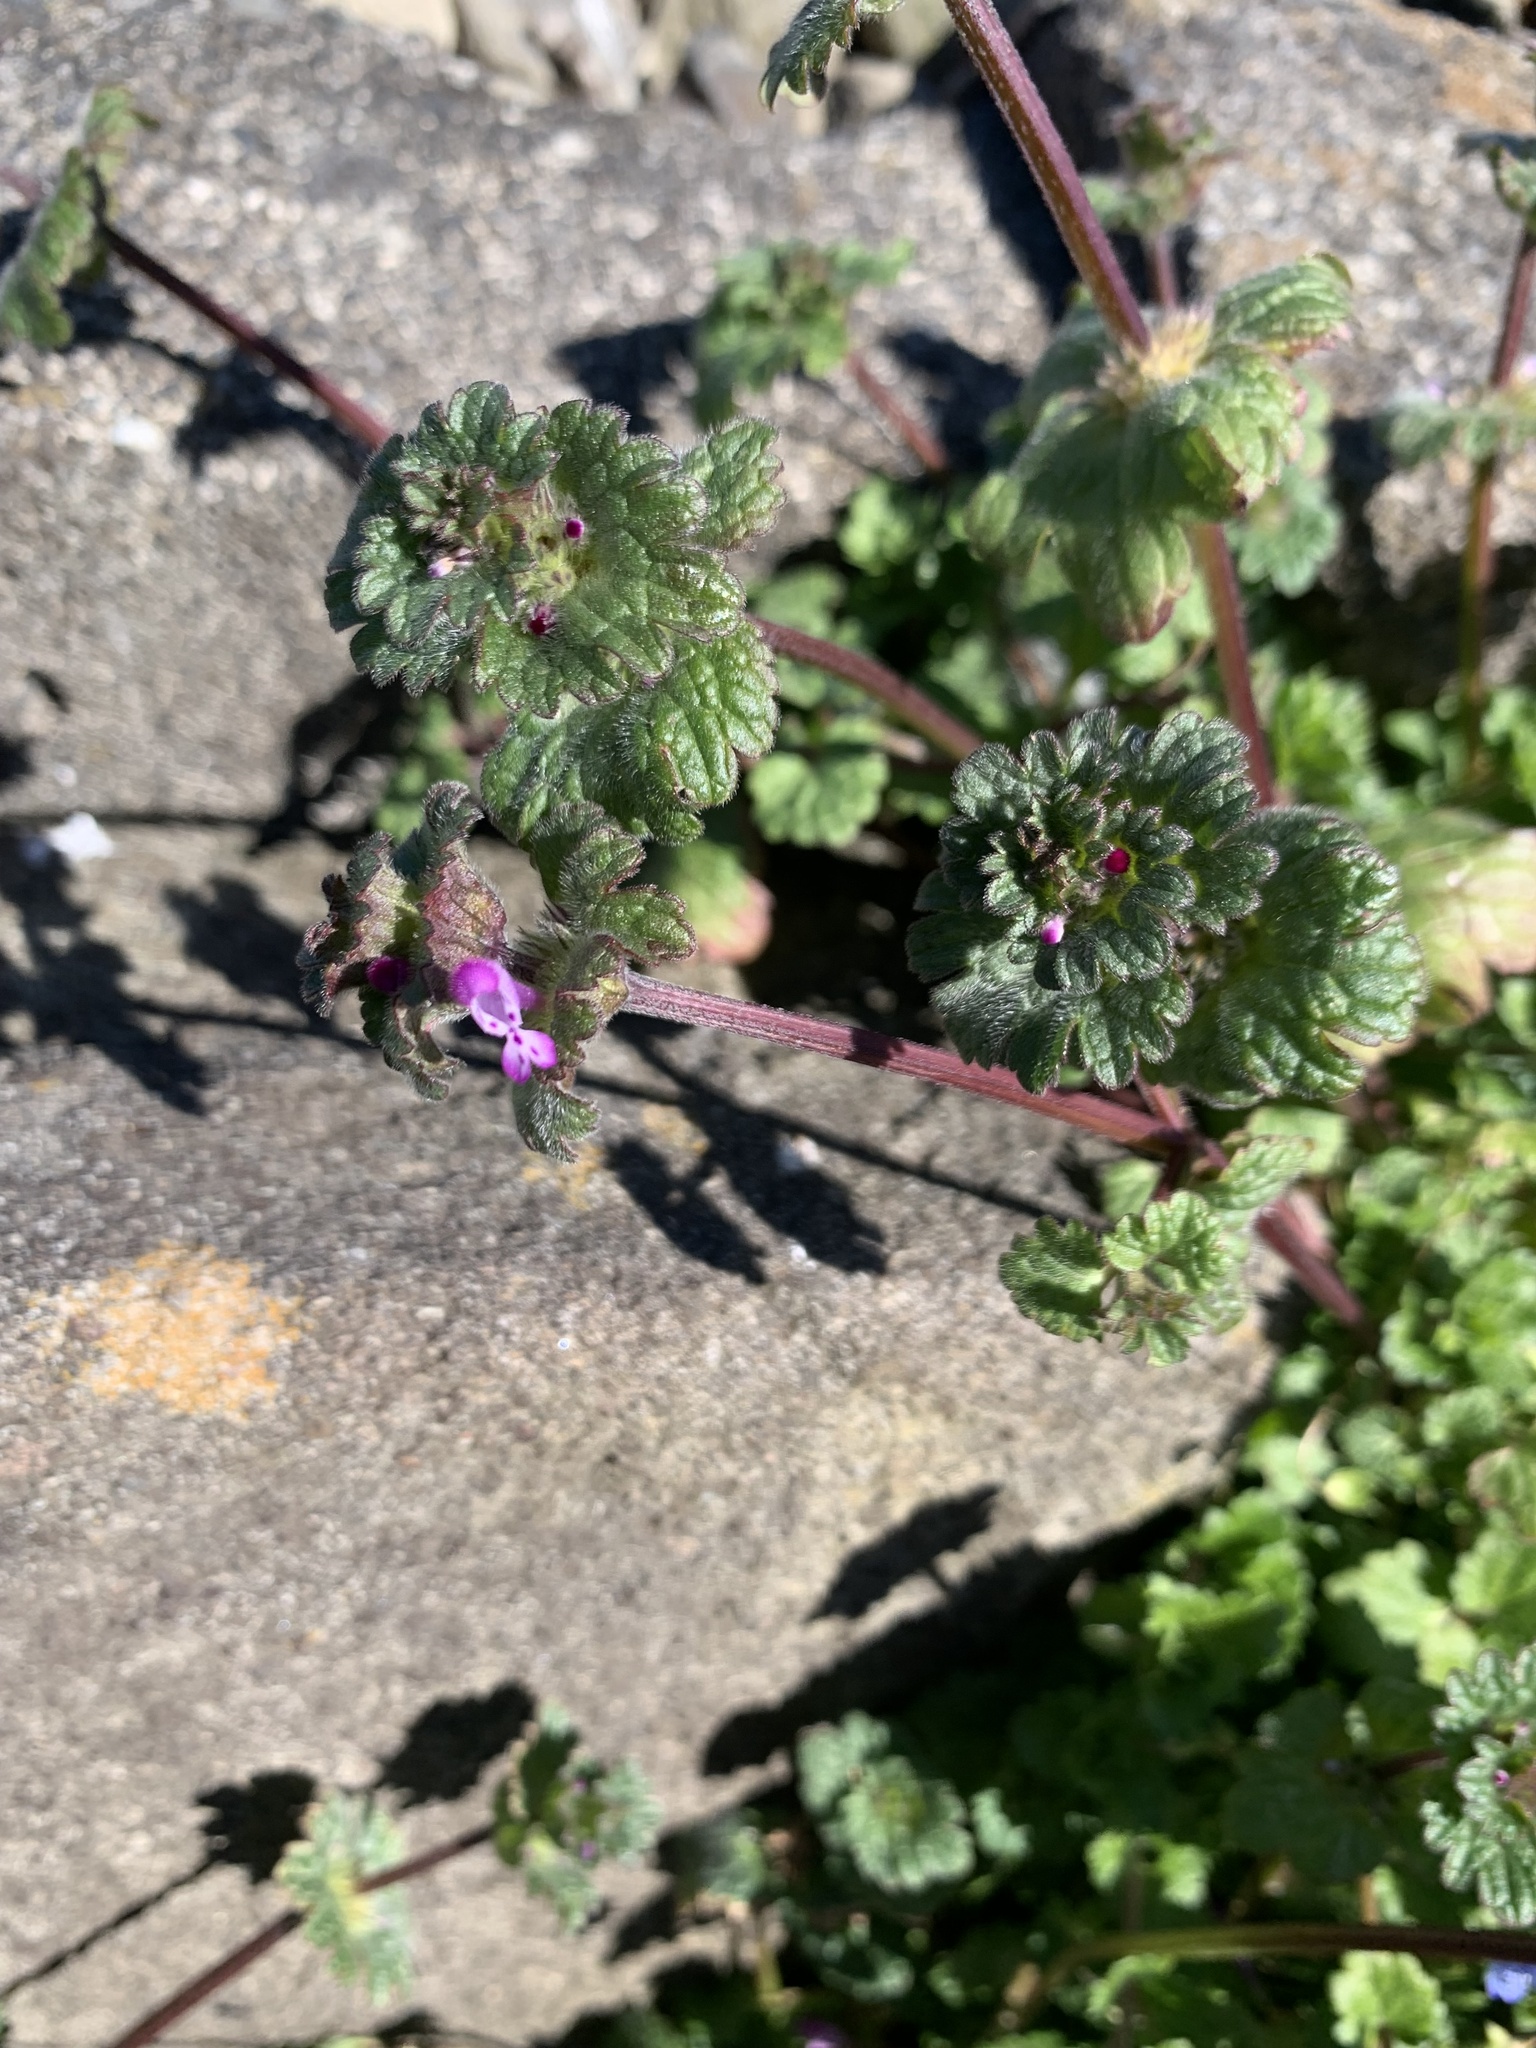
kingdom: Plantae
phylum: Tracheophyta
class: Magnoliopsida
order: Lamiales
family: Lamiaceae
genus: Lamium
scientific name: Lamium amplexicaule
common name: Henbit dead-nettle
